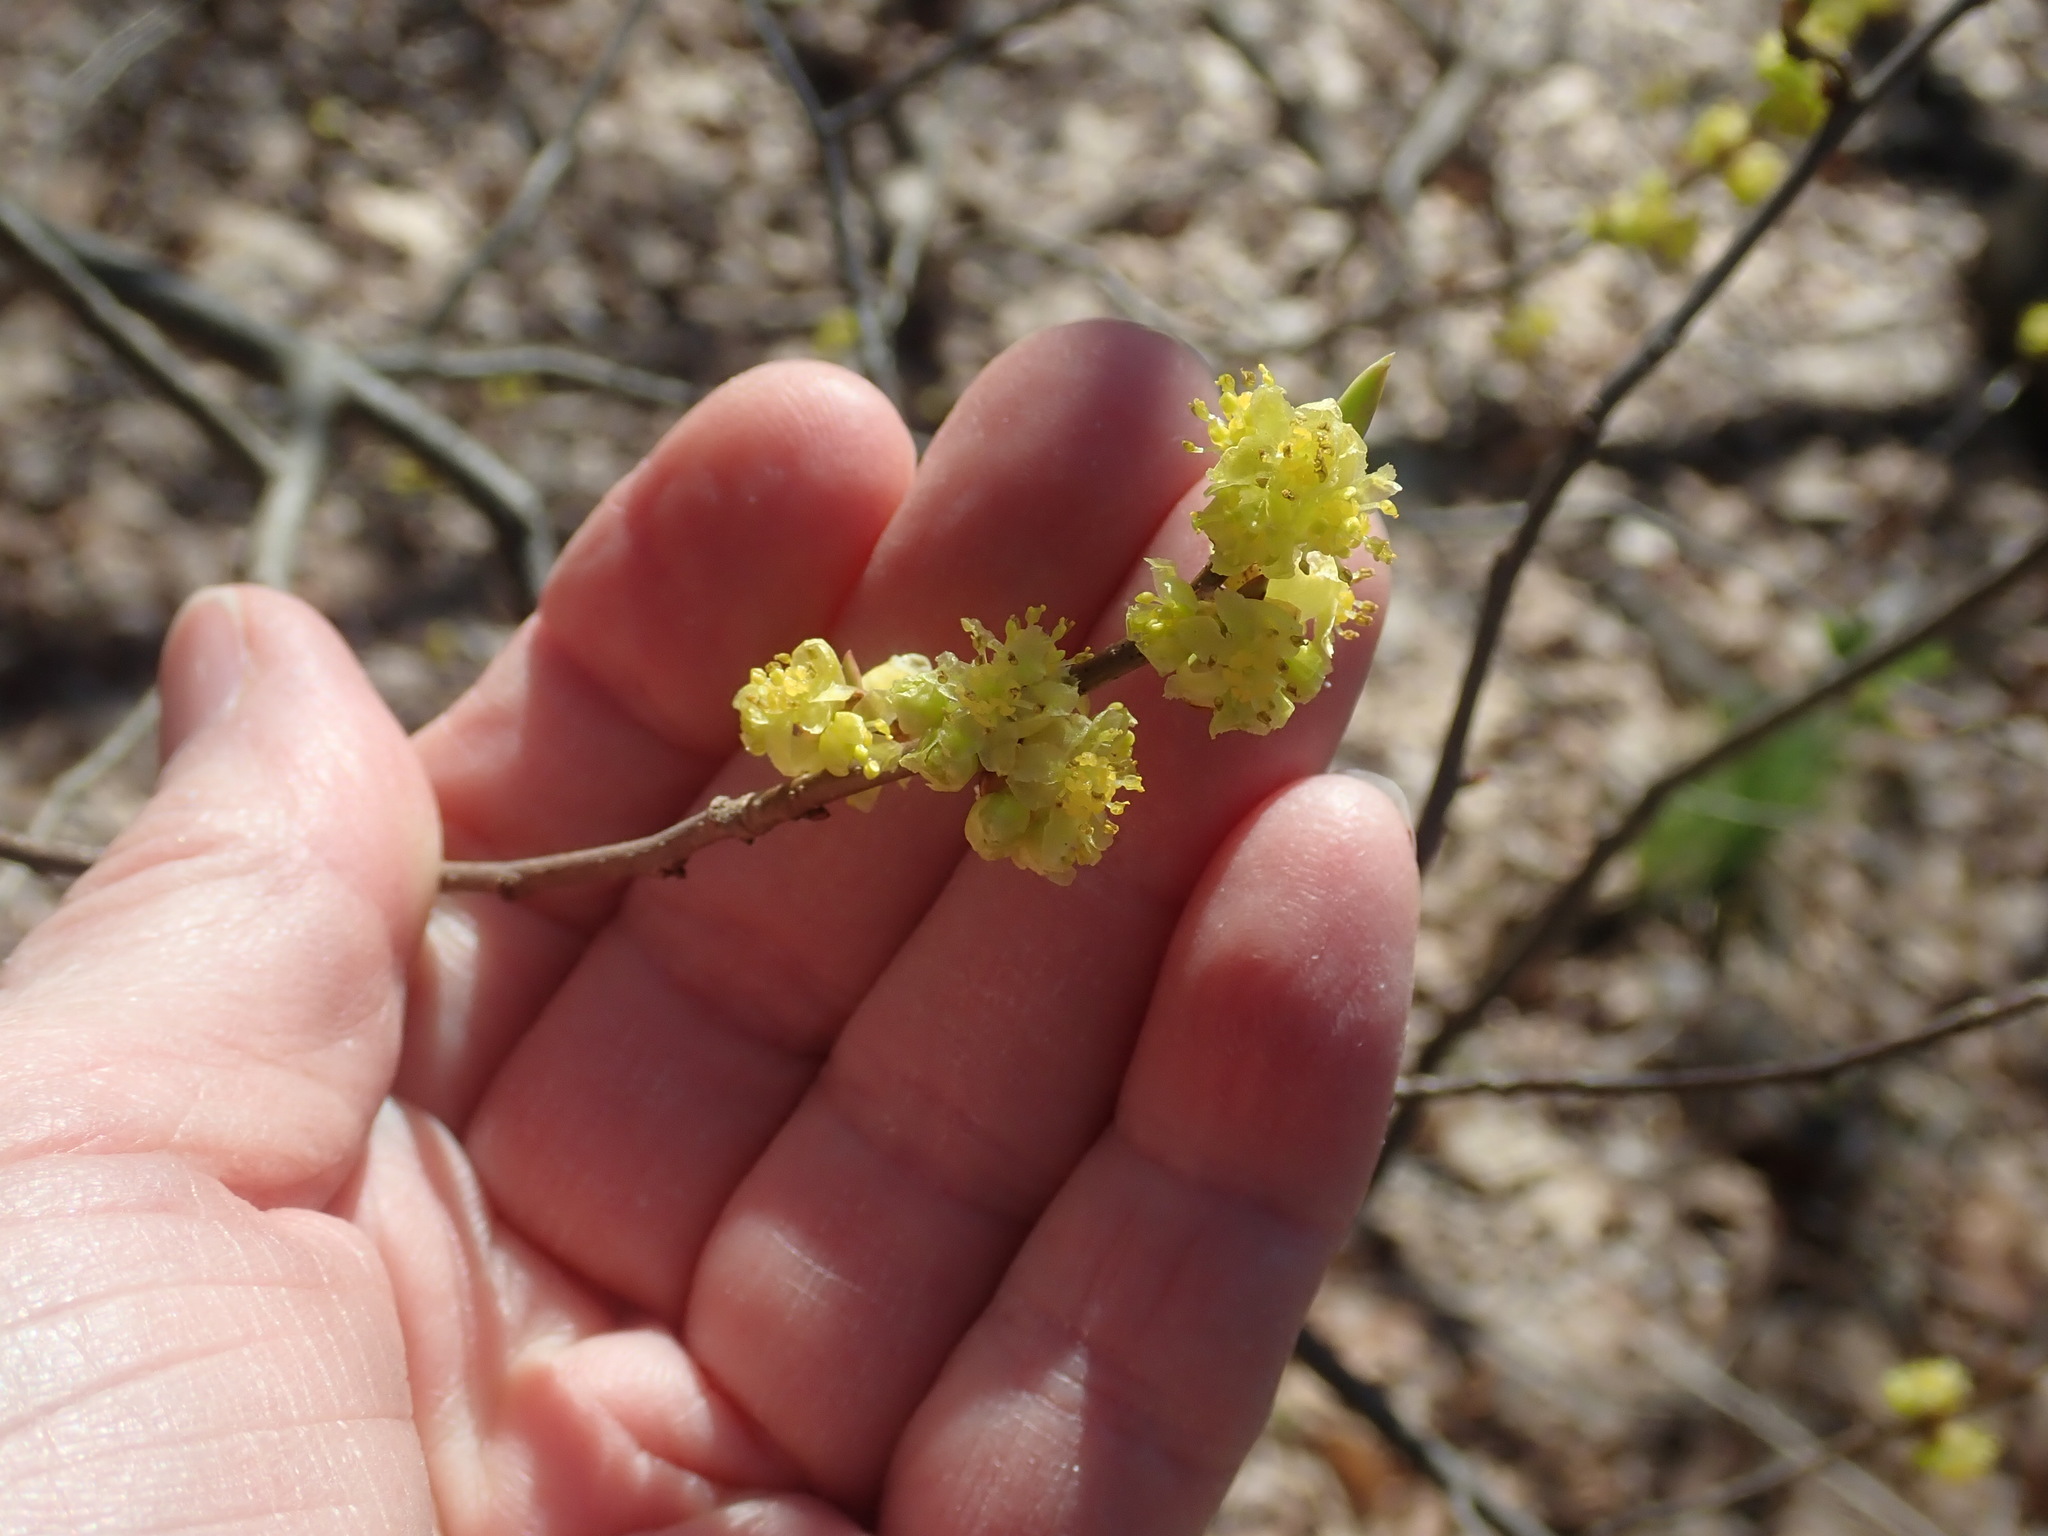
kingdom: Plantae
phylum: Tracheophyta
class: Magnoliopsida
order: Laurales
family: Lauraceae
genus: Lindera
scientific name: Lindera benzoin
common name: Spicebush
